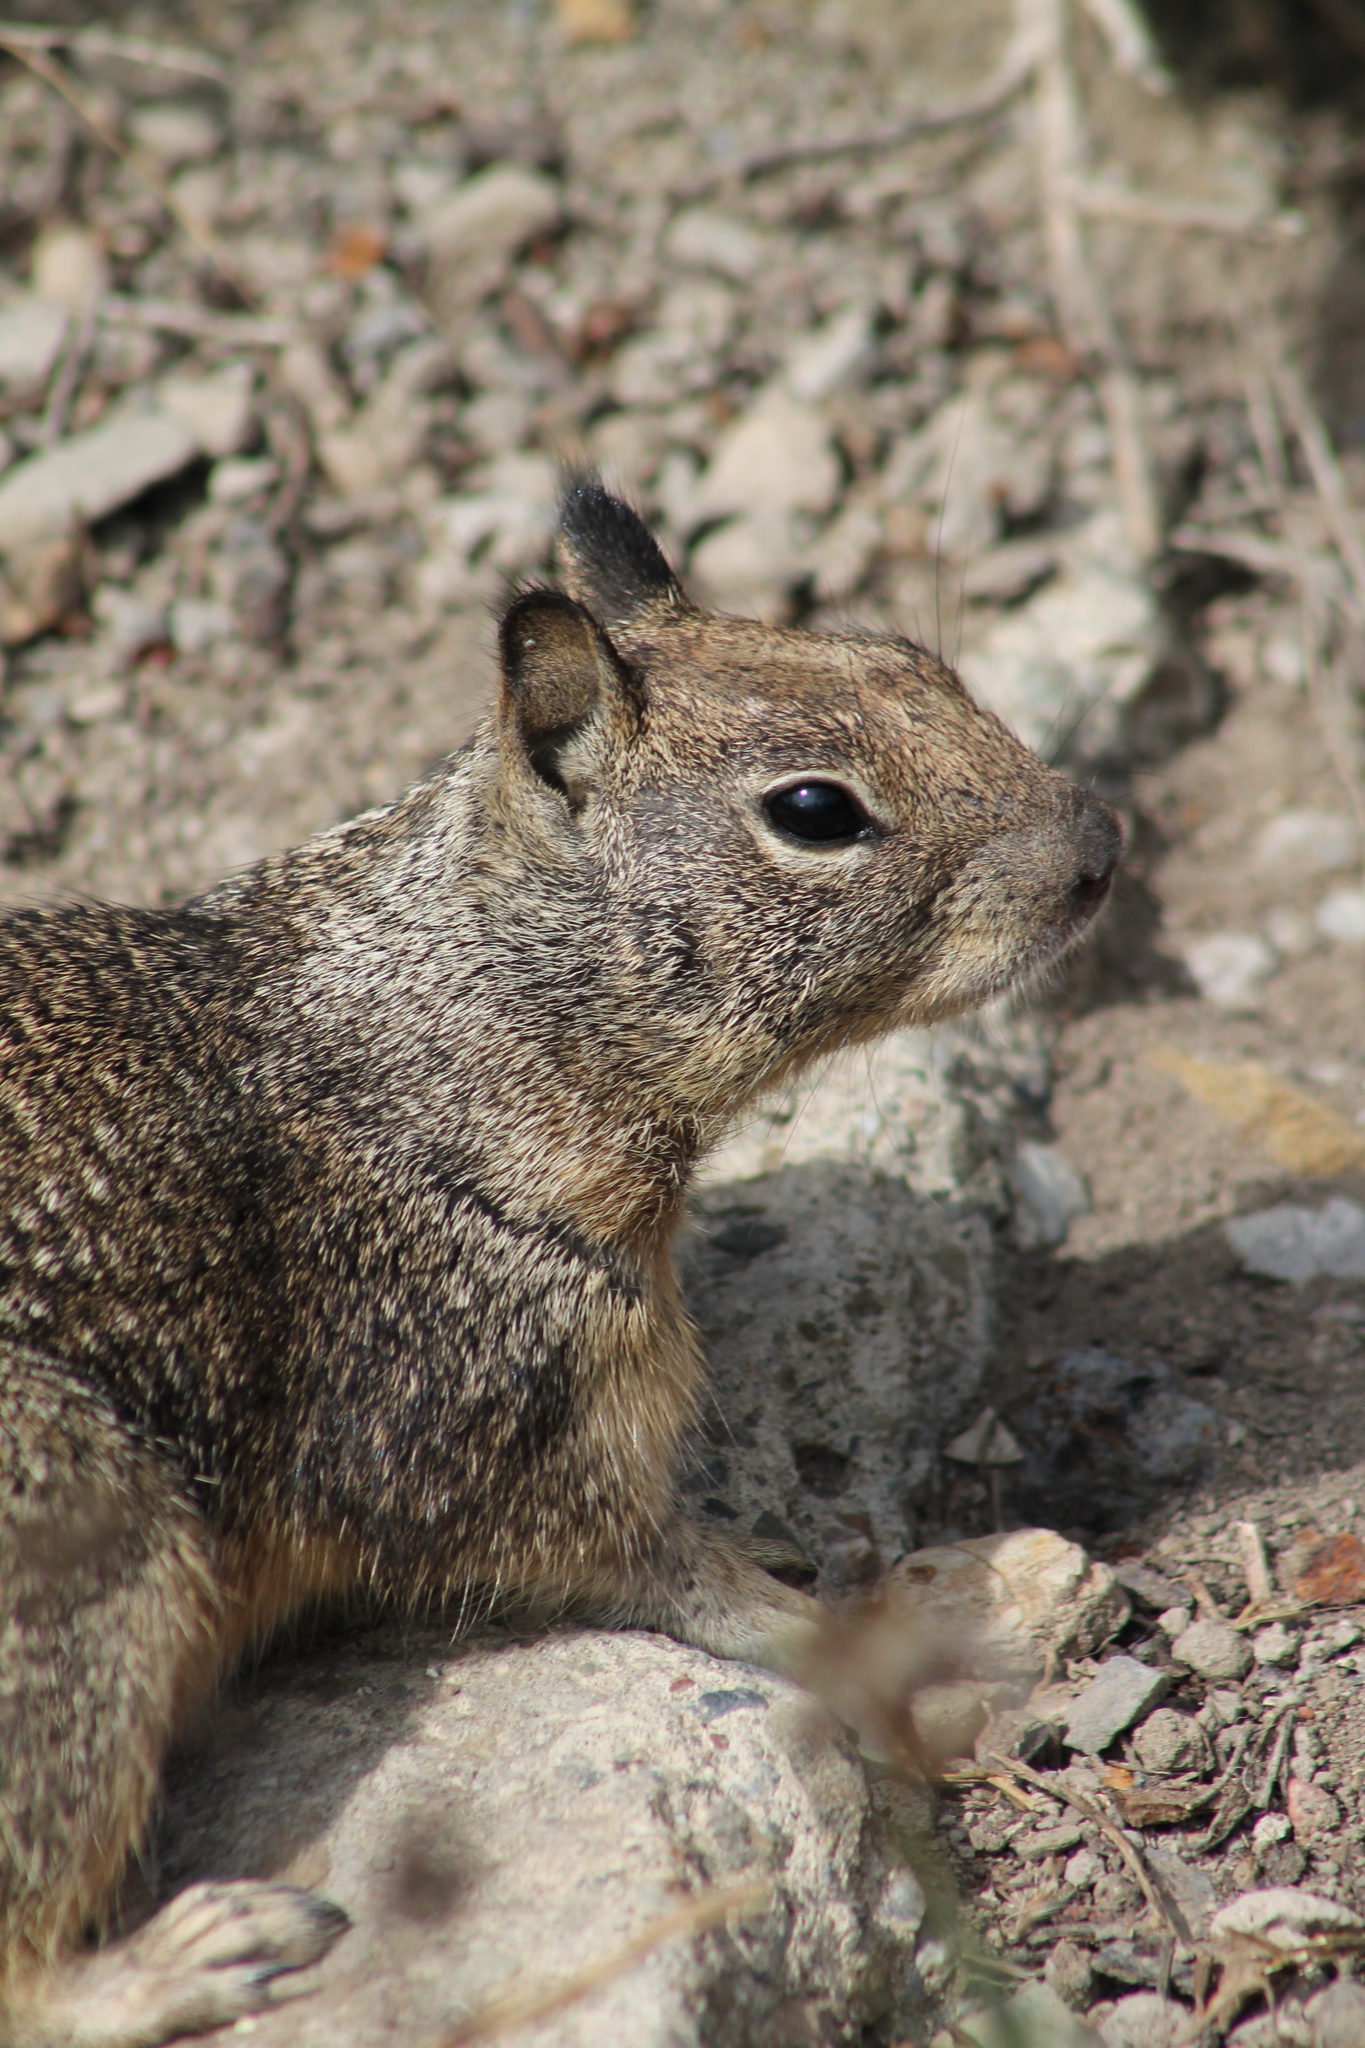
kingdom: Animalia
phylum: Chordata
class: Mammalia
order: Rodentia
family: Sciuridae
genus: Otospermophilus
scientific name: Otospermophilus beecheyi
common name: California ground squirrel
